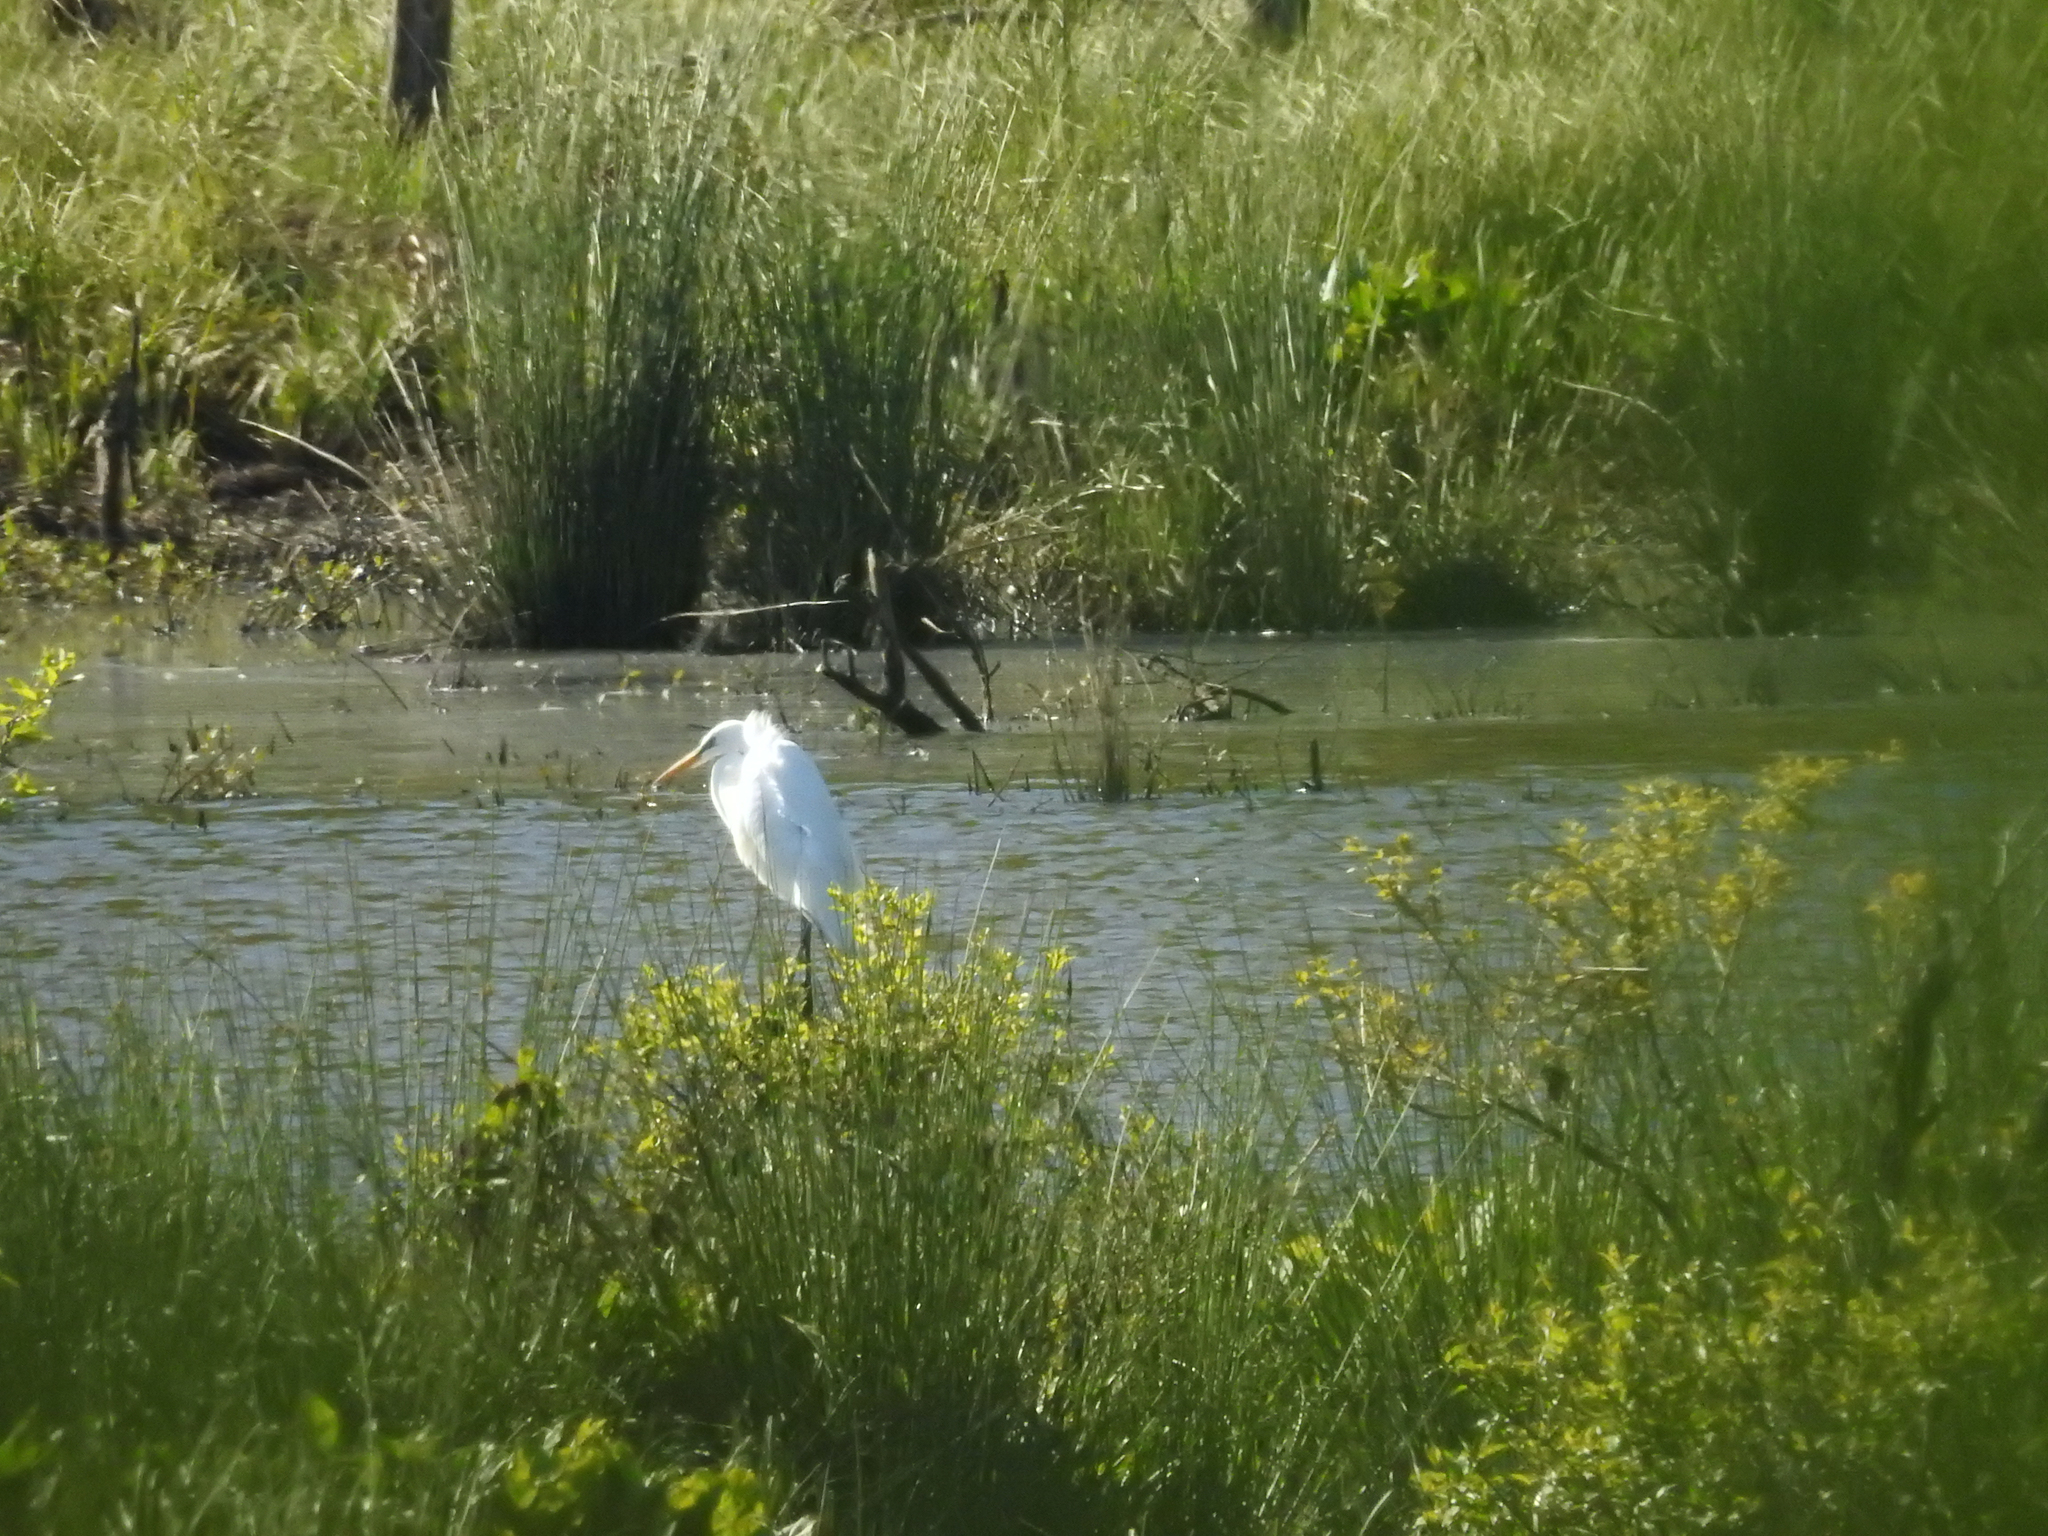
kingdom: Animalia
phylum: Chordata
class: Aves
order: Pelecaniformes
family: Ardeidae
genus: Ardea
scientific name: Ardea alba
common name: Great egret
